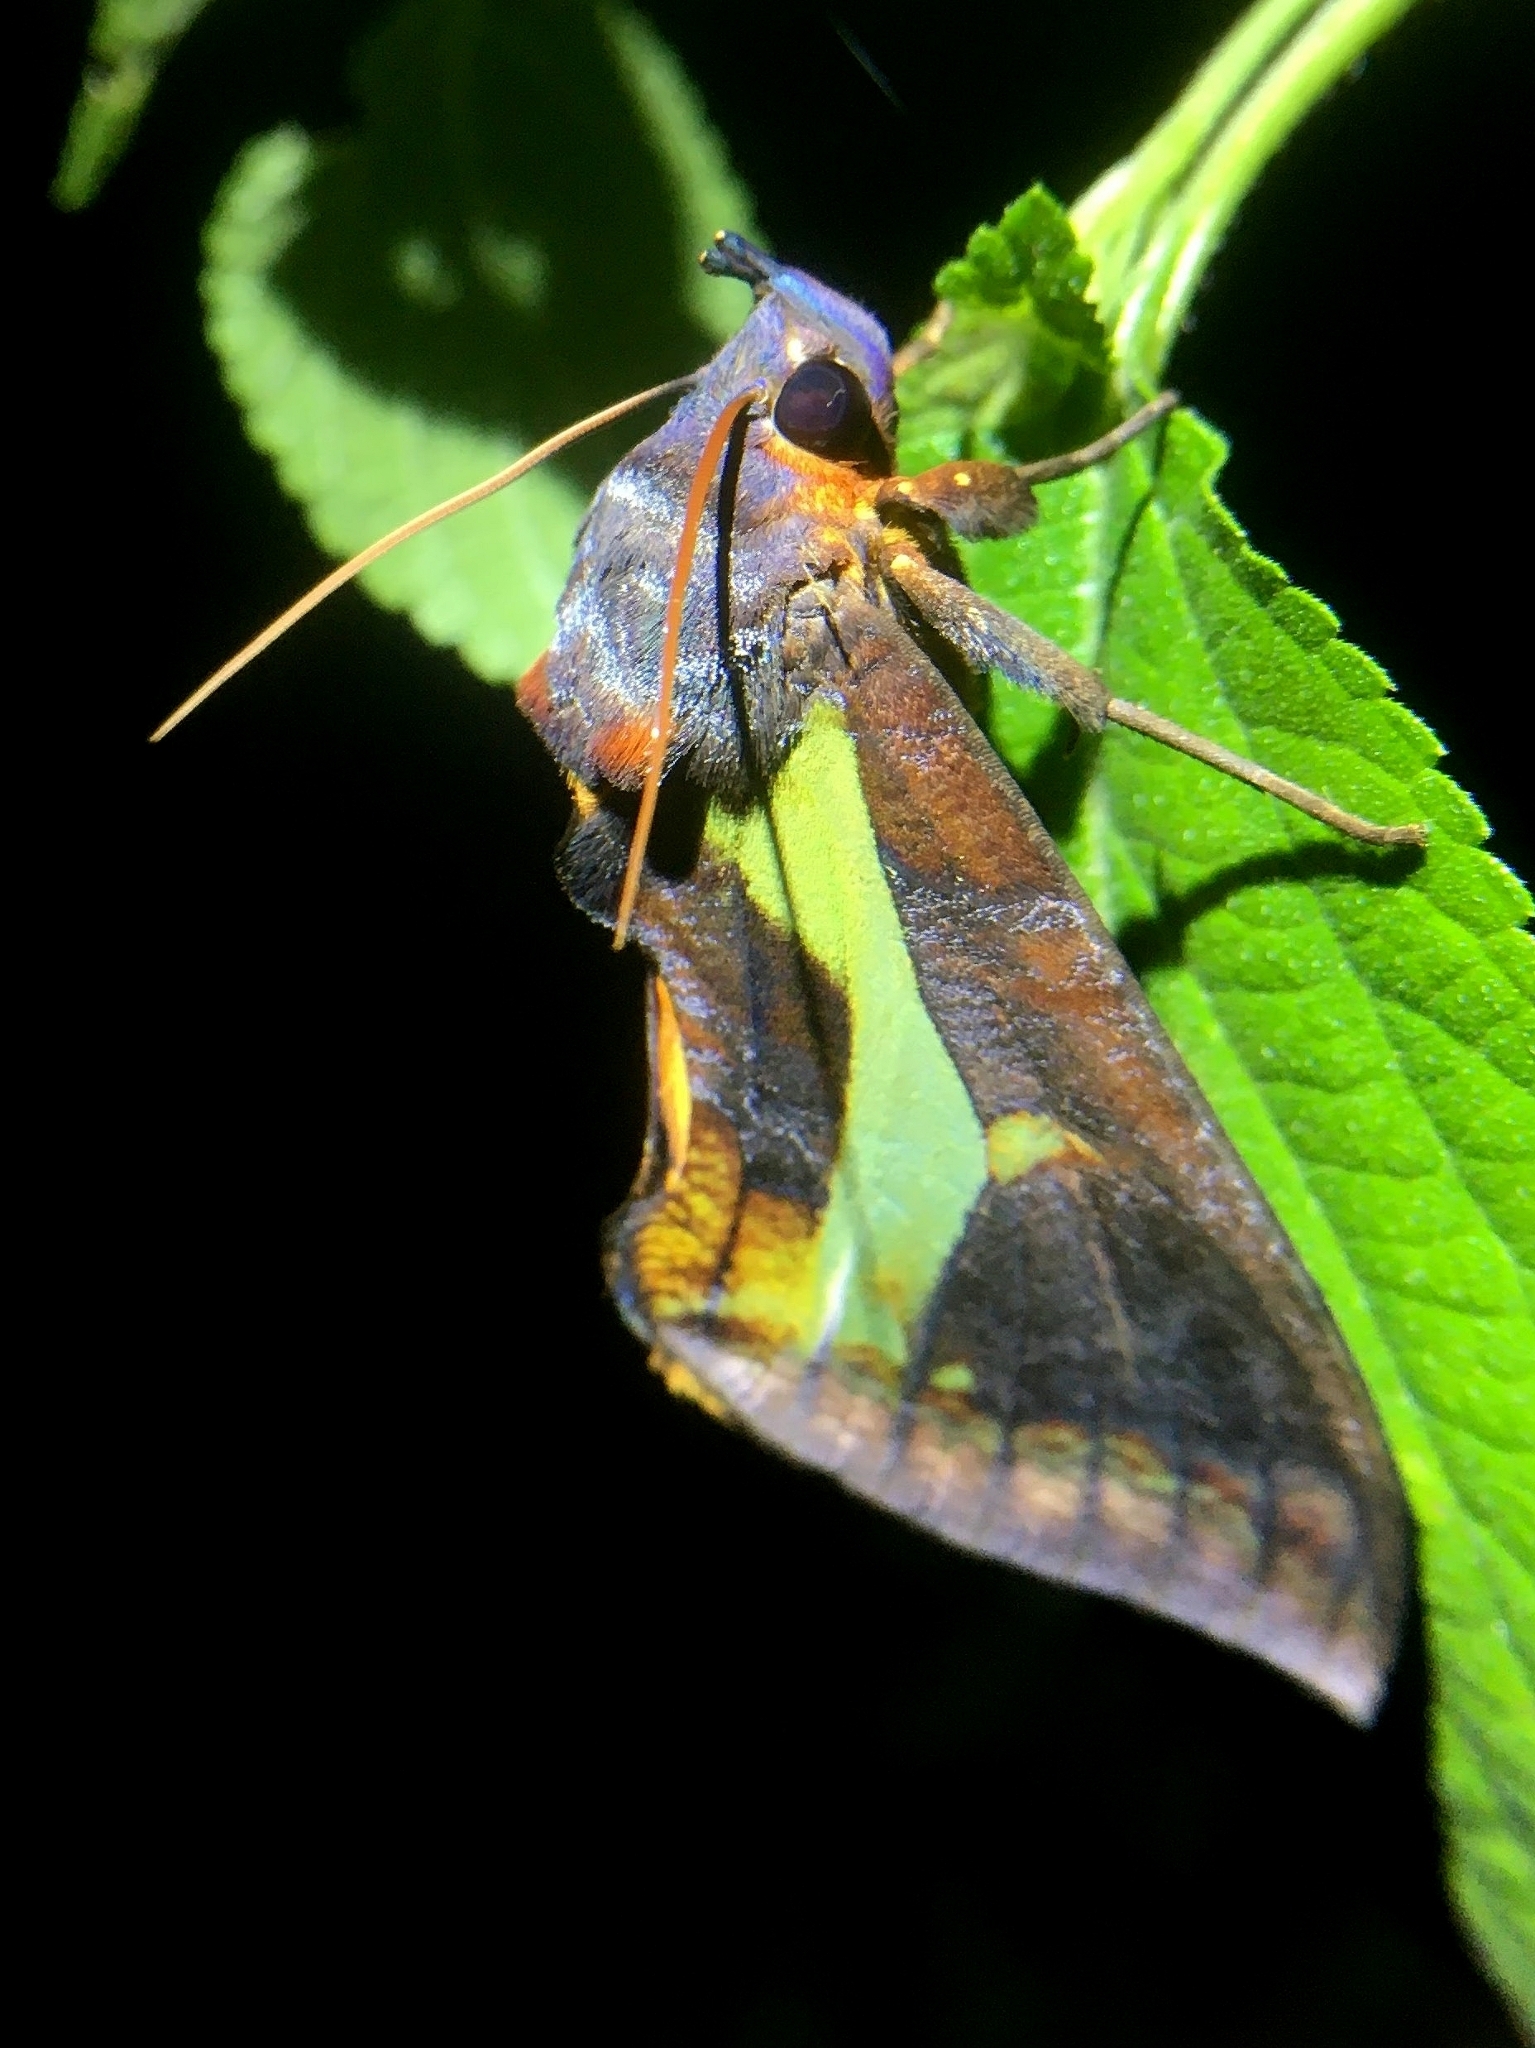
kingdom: Animalia
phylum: Arthropoda
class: Insecta
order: Lepidoptera
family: Erebidae
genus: Eudocima
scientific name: Eudocima homaena
